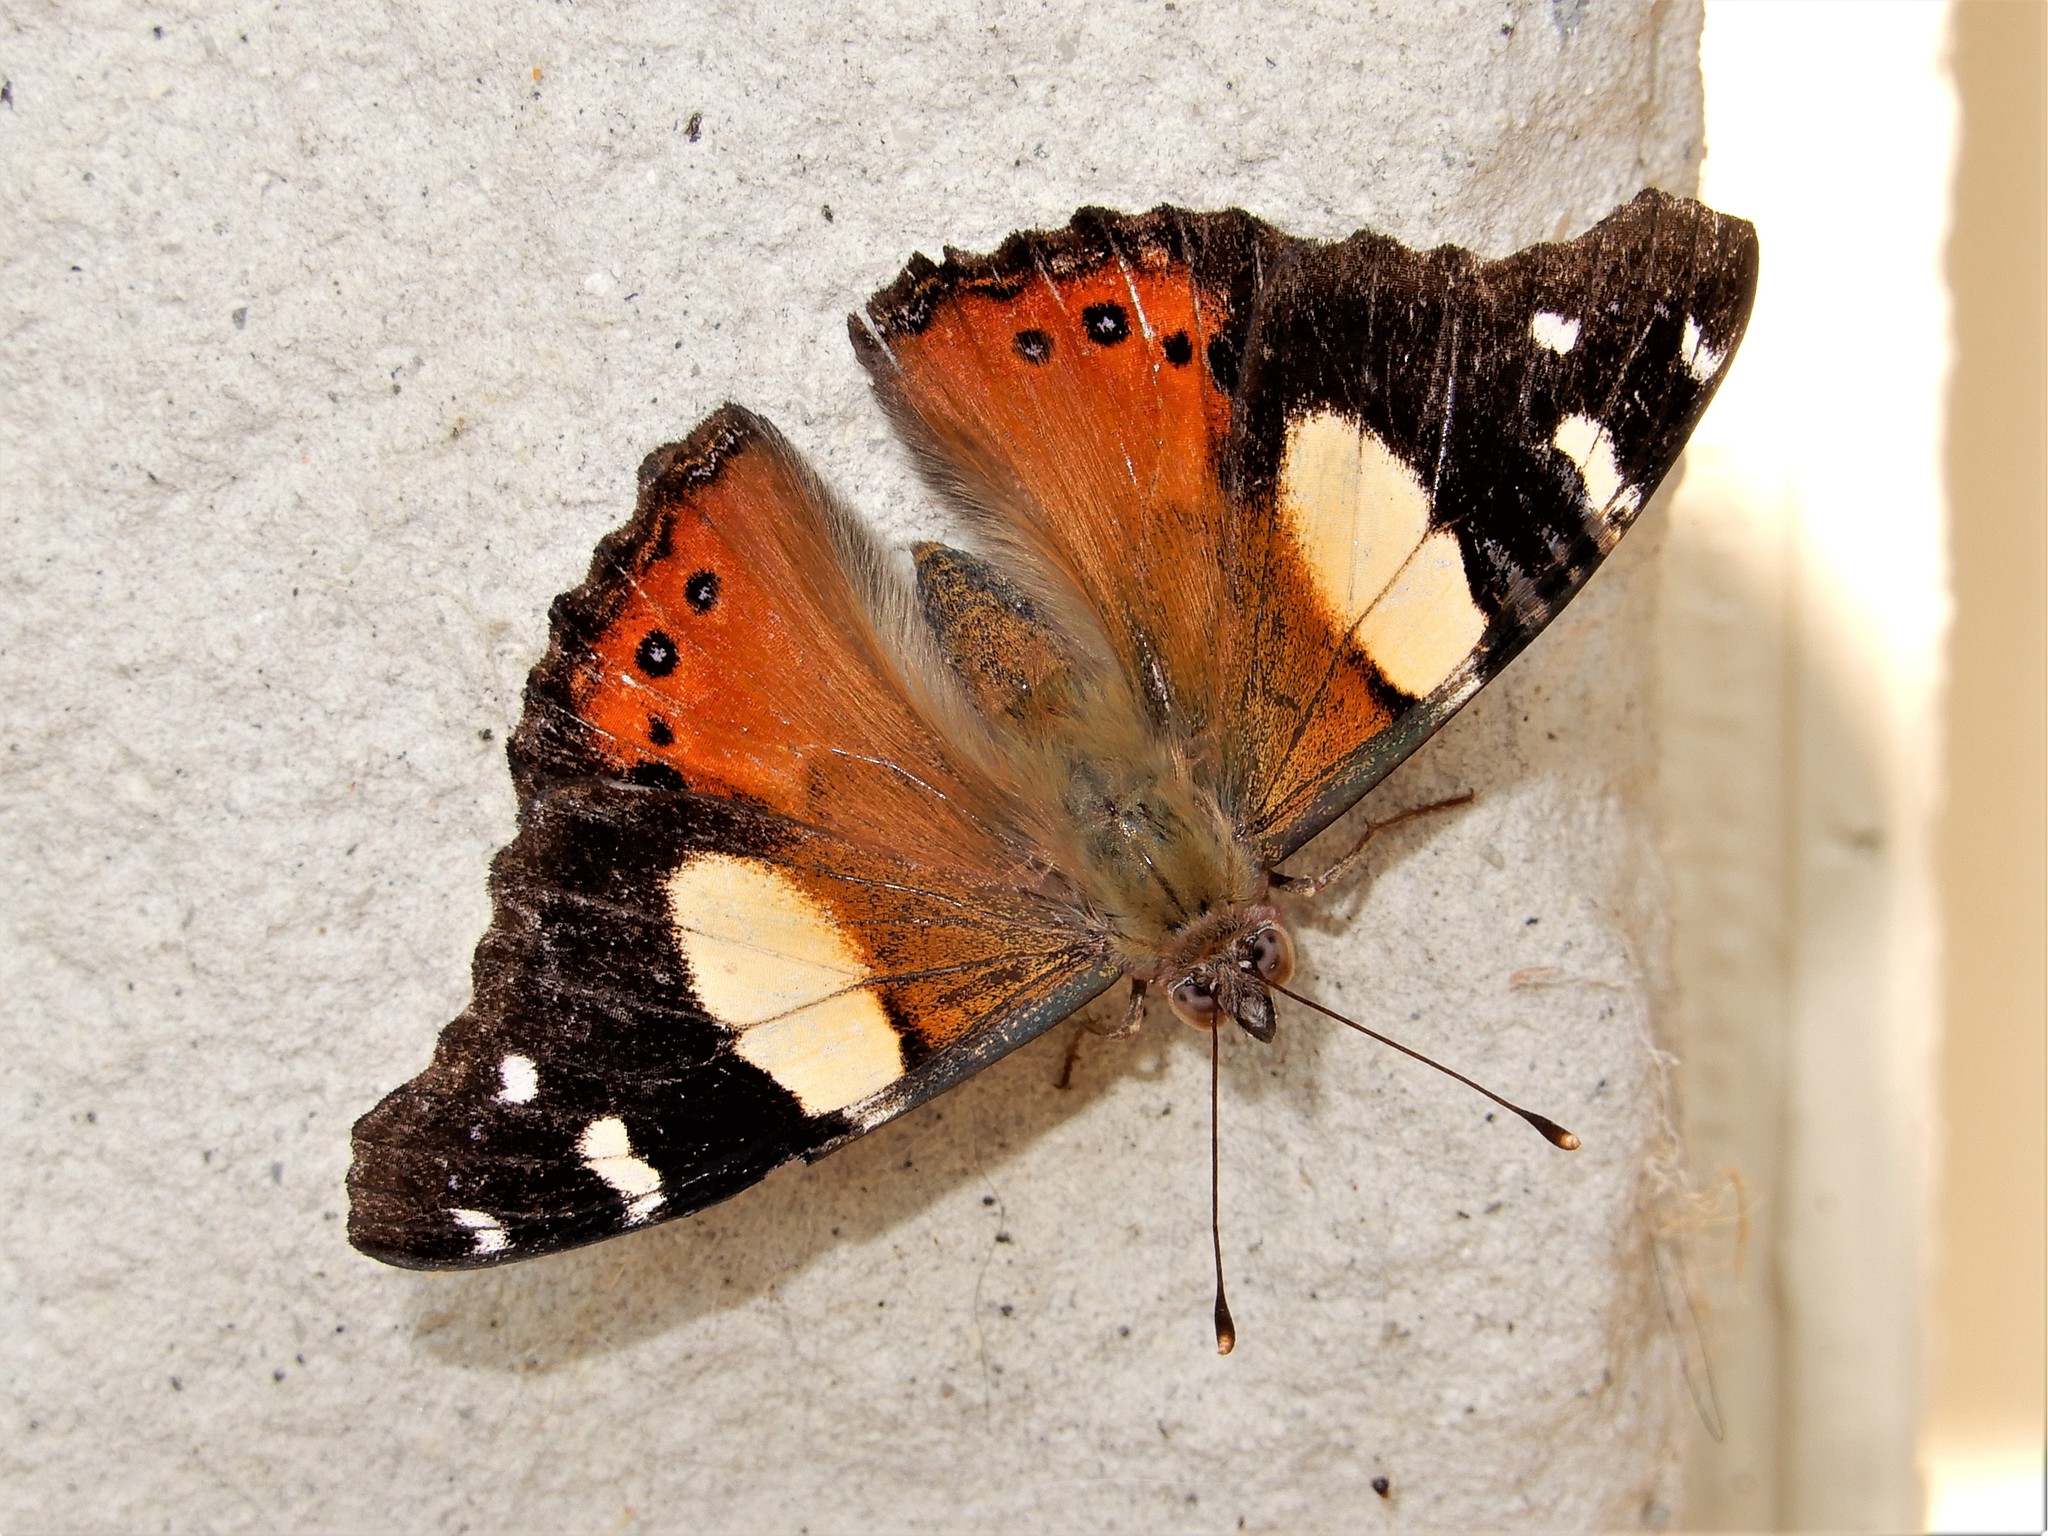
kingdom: Animalia
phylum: Arthropoda
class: Insecta
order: Lepidoptera
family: Nymphalidae
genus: Vanessa
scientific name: Vanessa itea
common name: Yellow admiral
